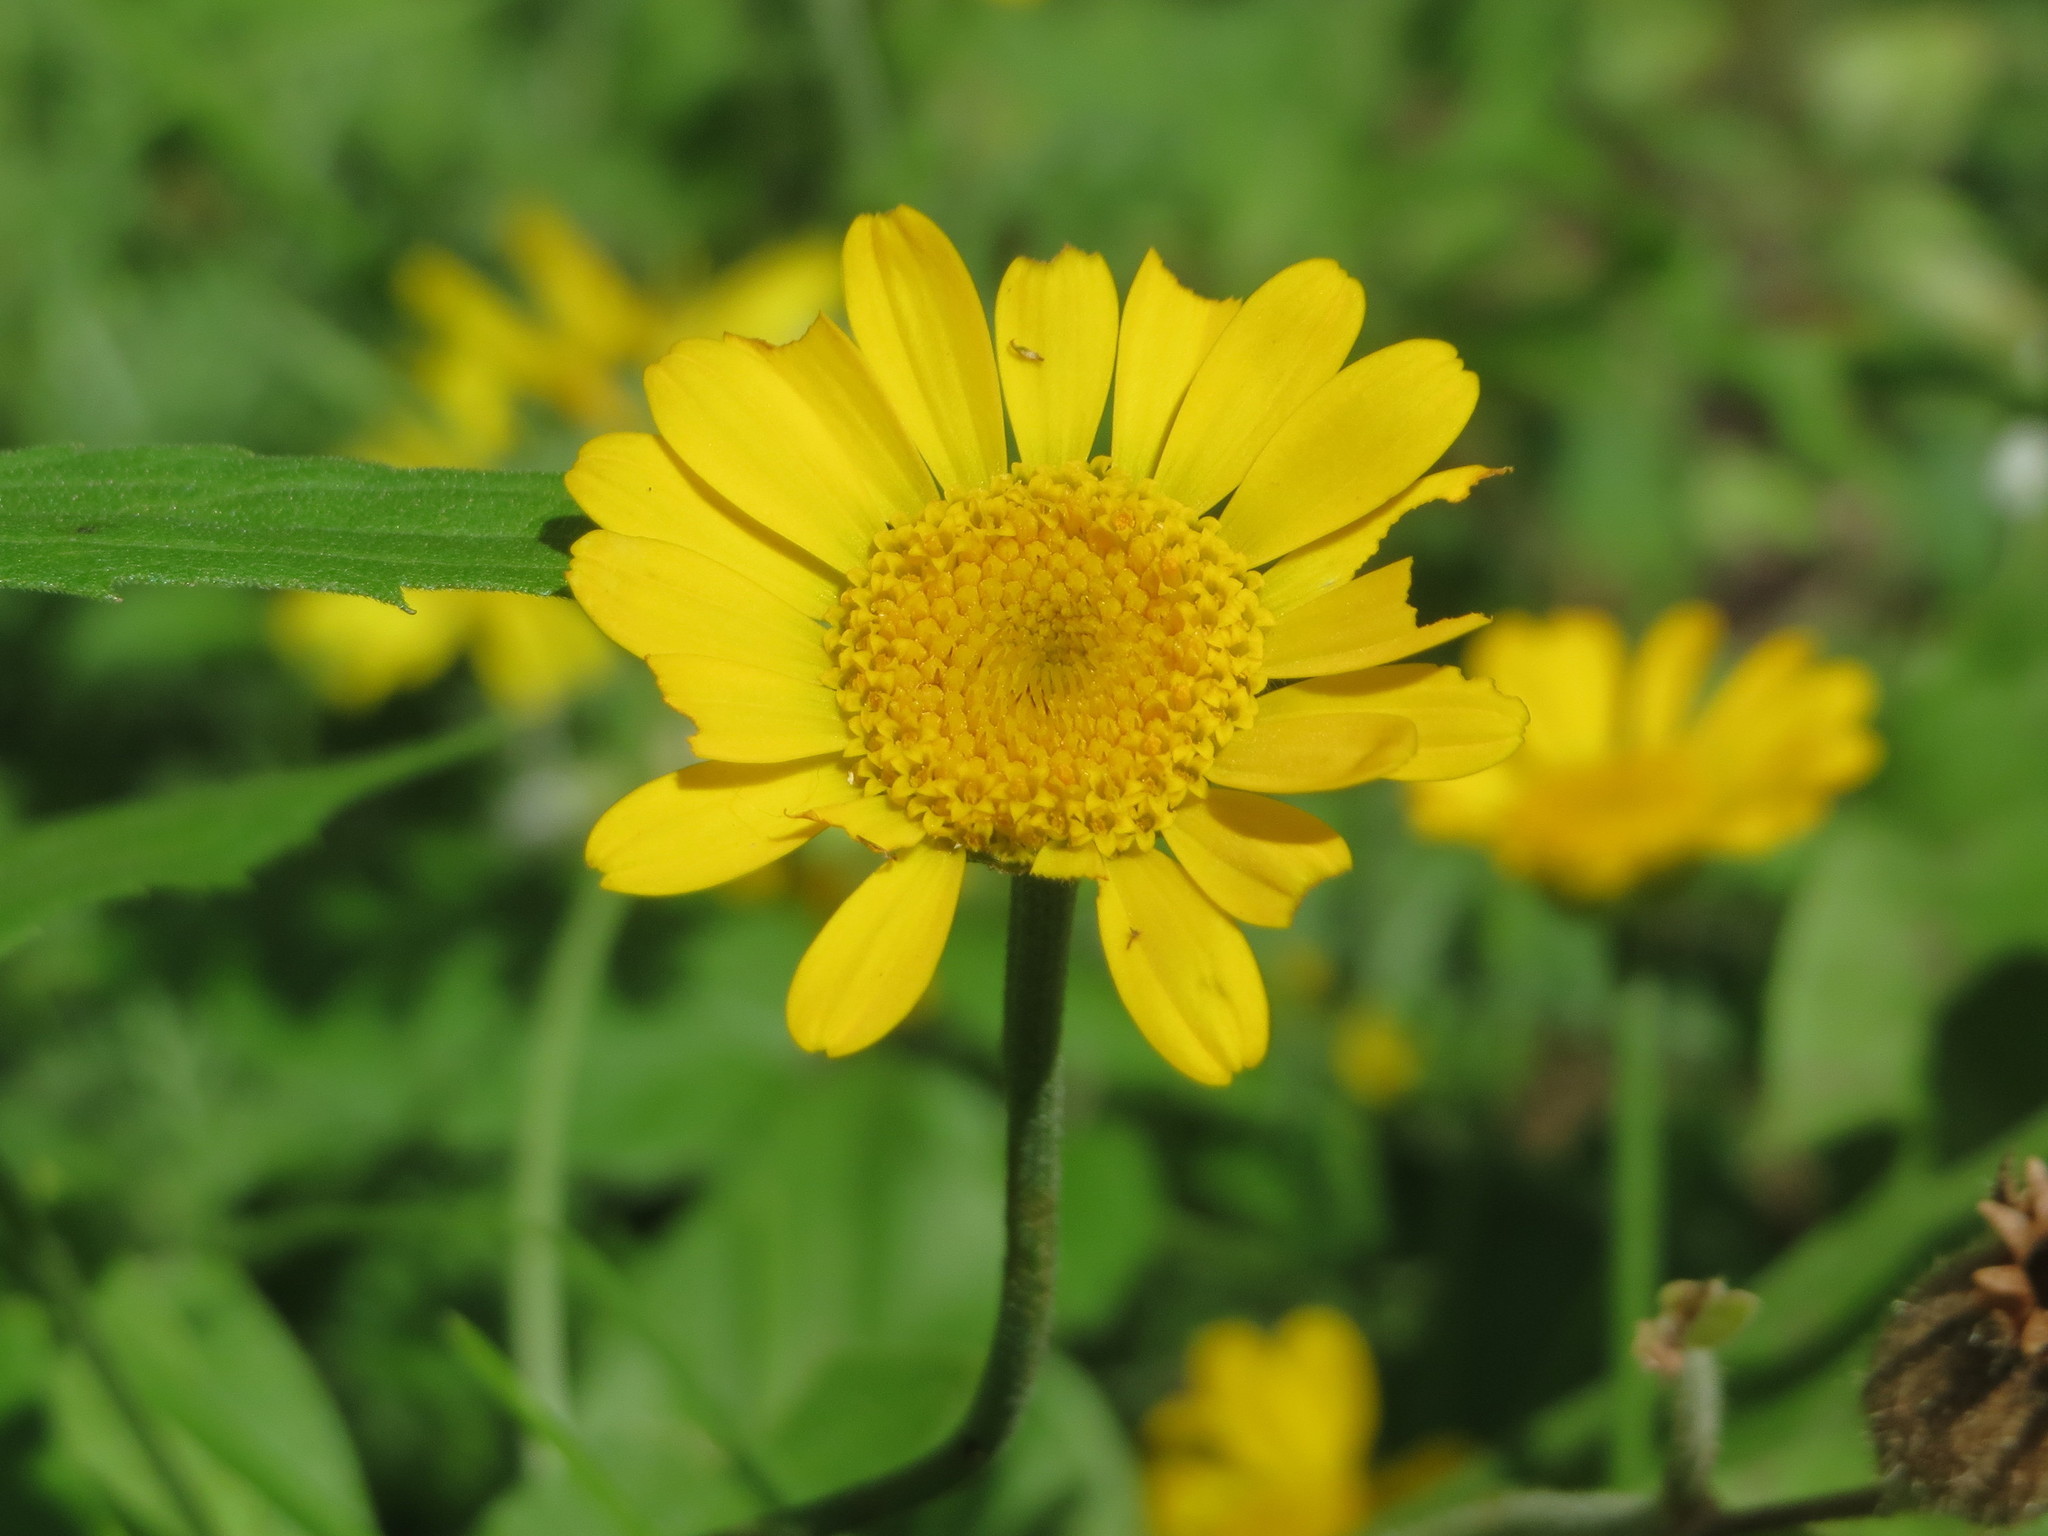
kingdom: Plantae
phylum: Tracheophyta
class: Magnoliopsida
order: Asterales
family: Asteraceae
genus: Cota
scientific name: Cota tinctoria
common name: Golden chamomile
